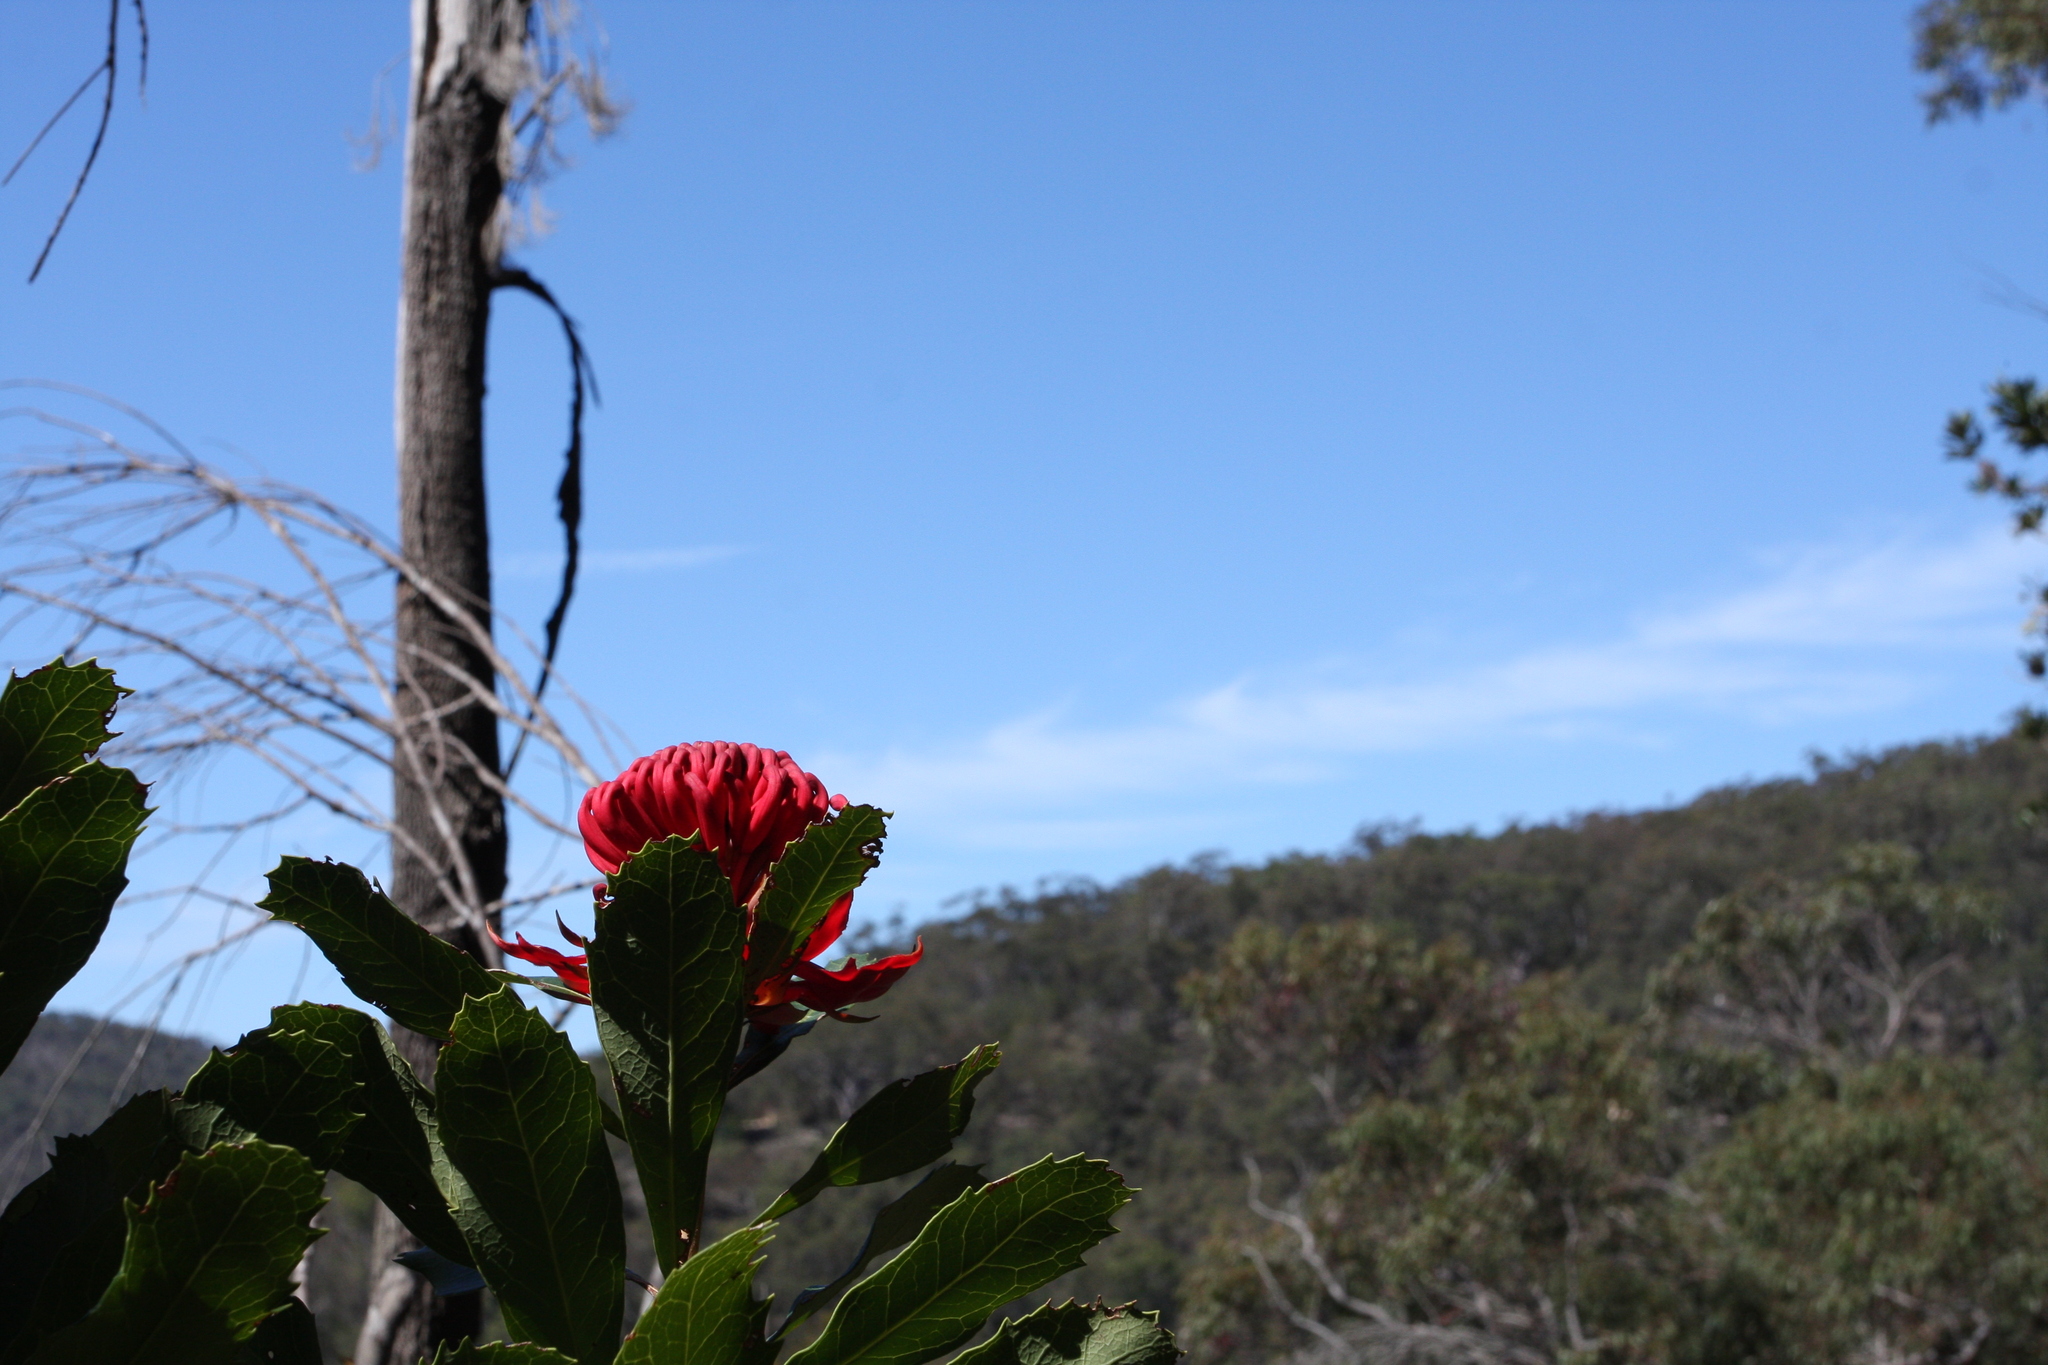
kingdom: Plantae
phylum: Tracheophyta
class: Magnoliopsida
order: Proteales
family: Proteaceae
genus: Telopea
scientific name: Telopea speciosissima
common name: New south wales waratah
